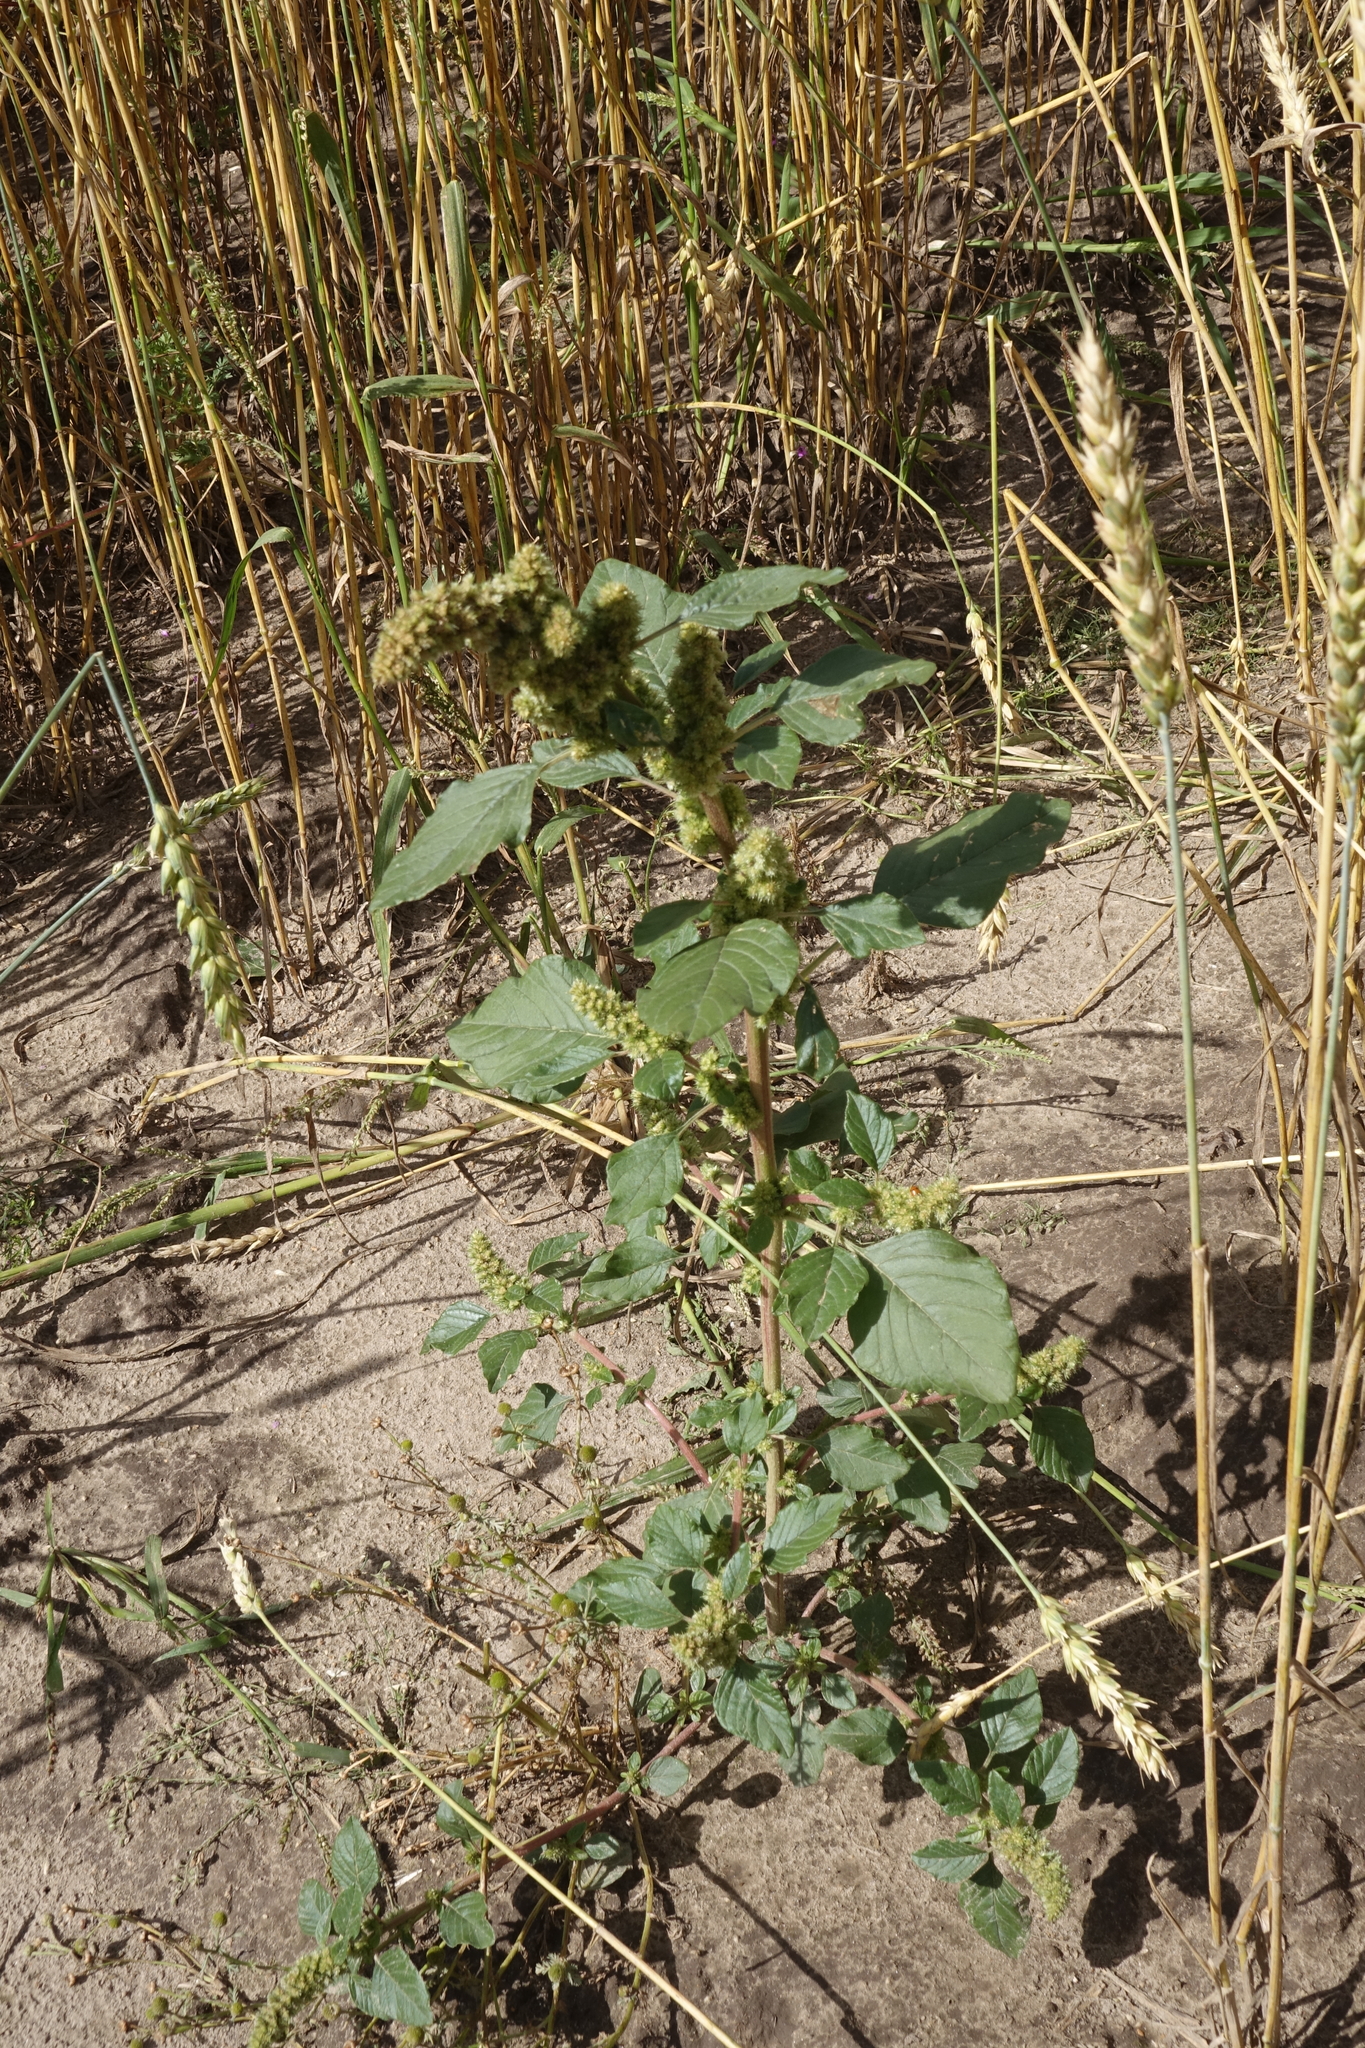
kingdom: Plantae
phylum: Tracheophyta
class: Magnoliopsida
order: Caryophyllales
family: Amaranthaceae
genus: Amaranthus
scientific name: Amaranthus retroflexus
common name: Redroot amaranth
